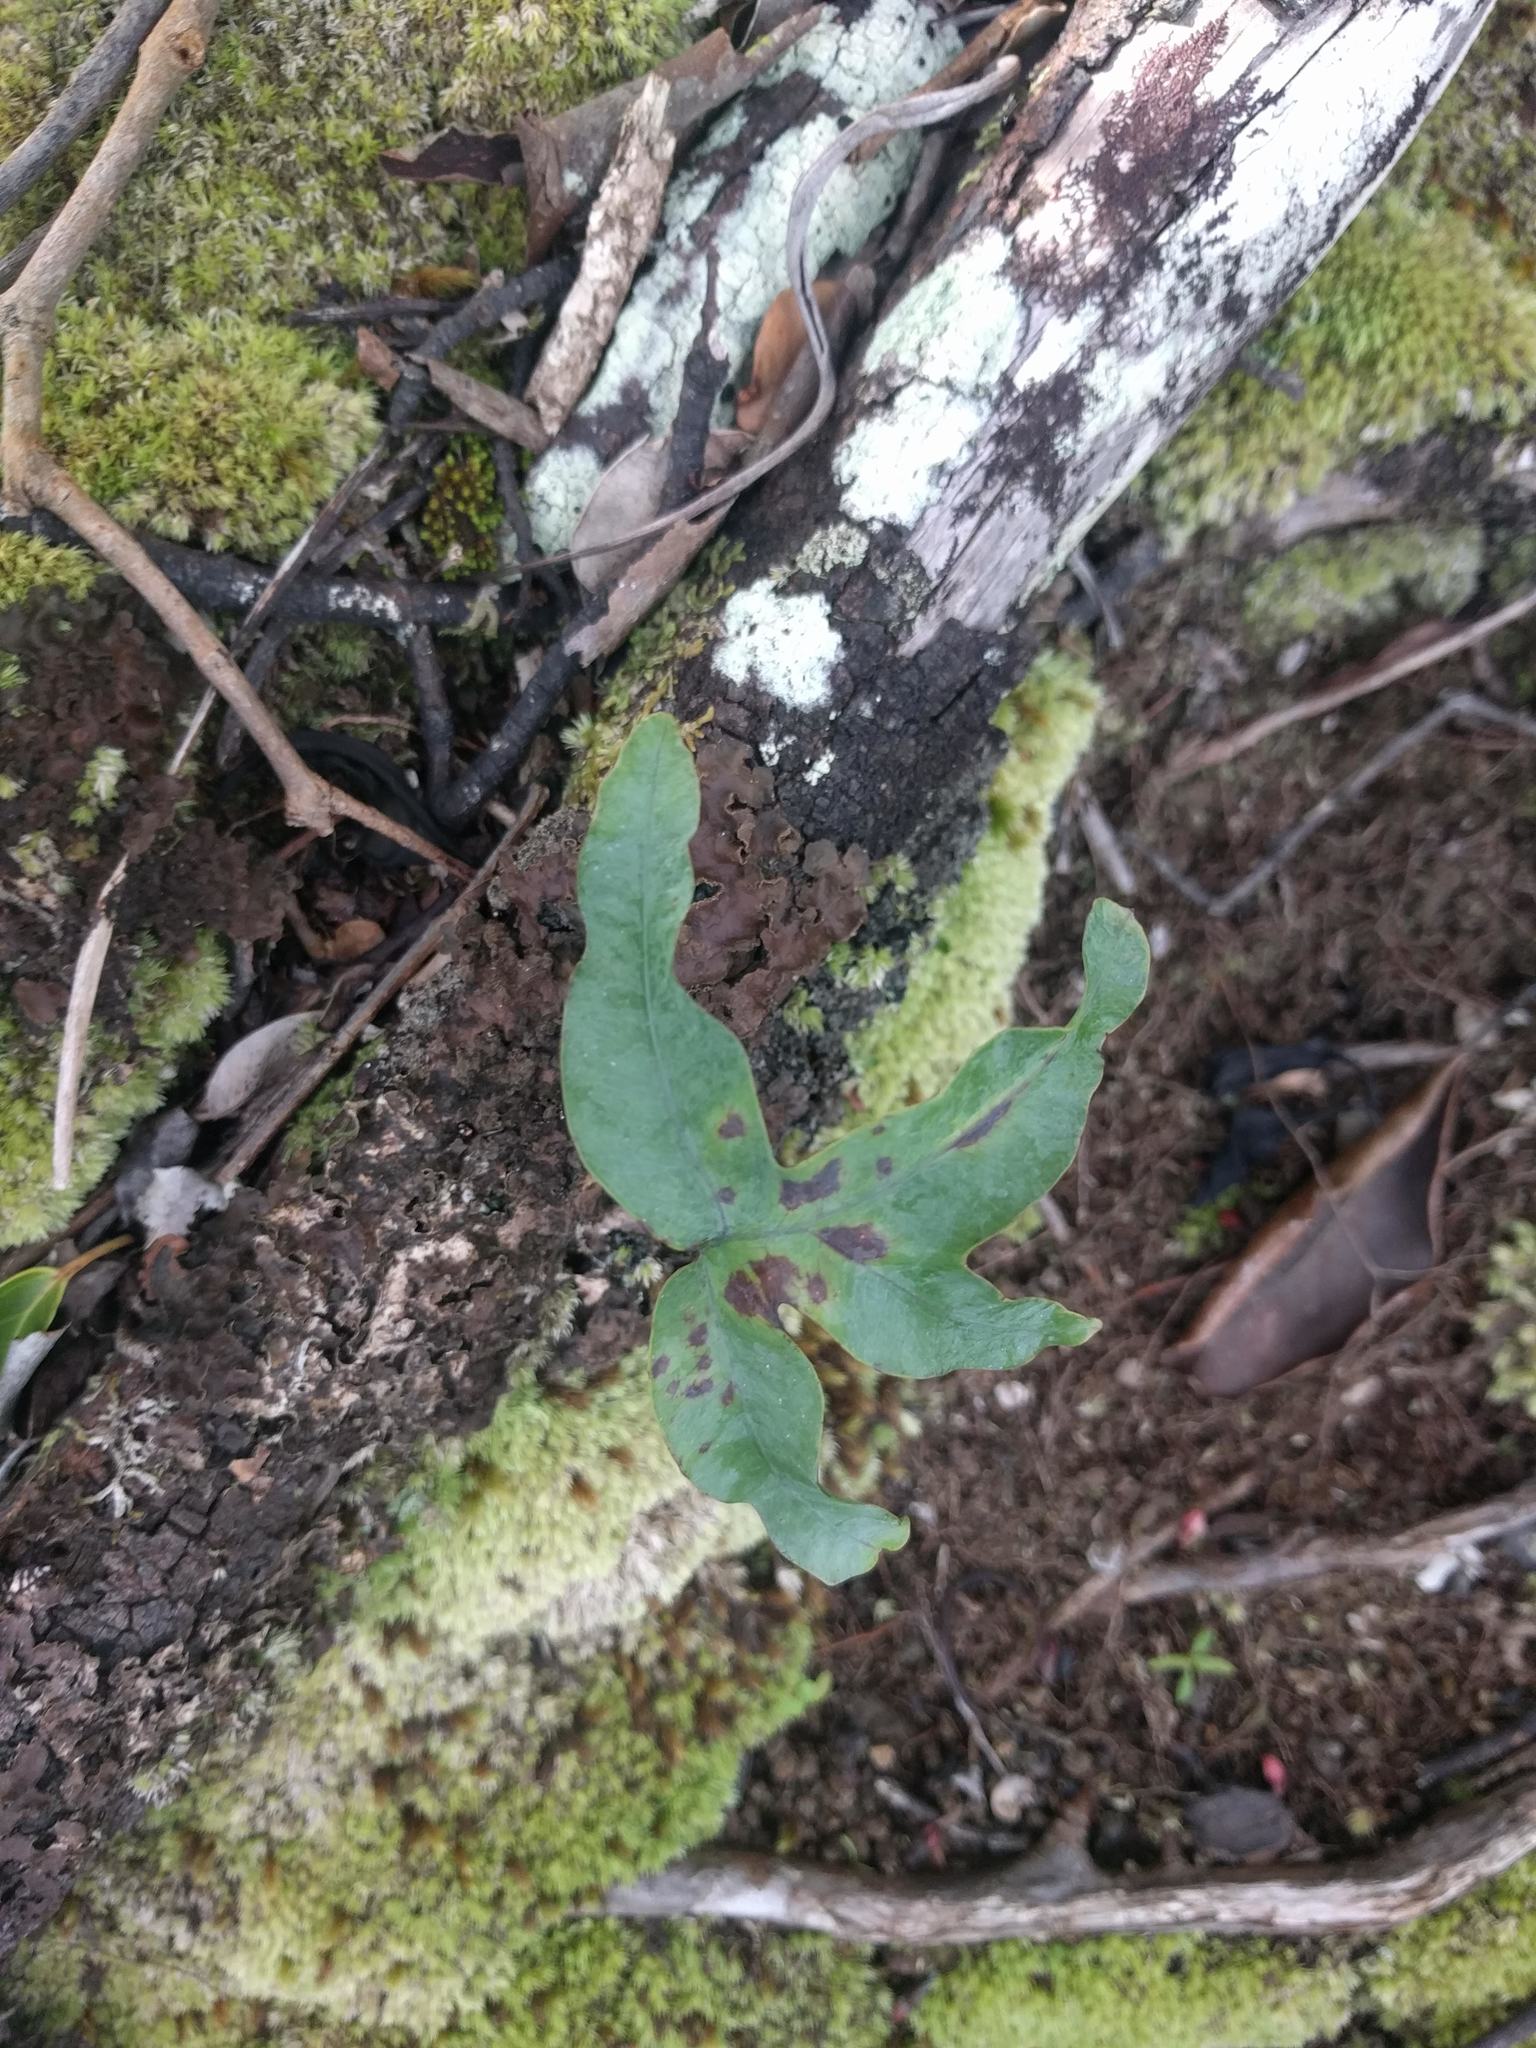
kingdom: Plantae
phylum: Tracheophyta
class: Polypodiopsida
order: Polypodiales
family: Polypodiaceae
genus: Phlebodium
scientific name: Phlebodium aureum
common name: Gold-foot fern
